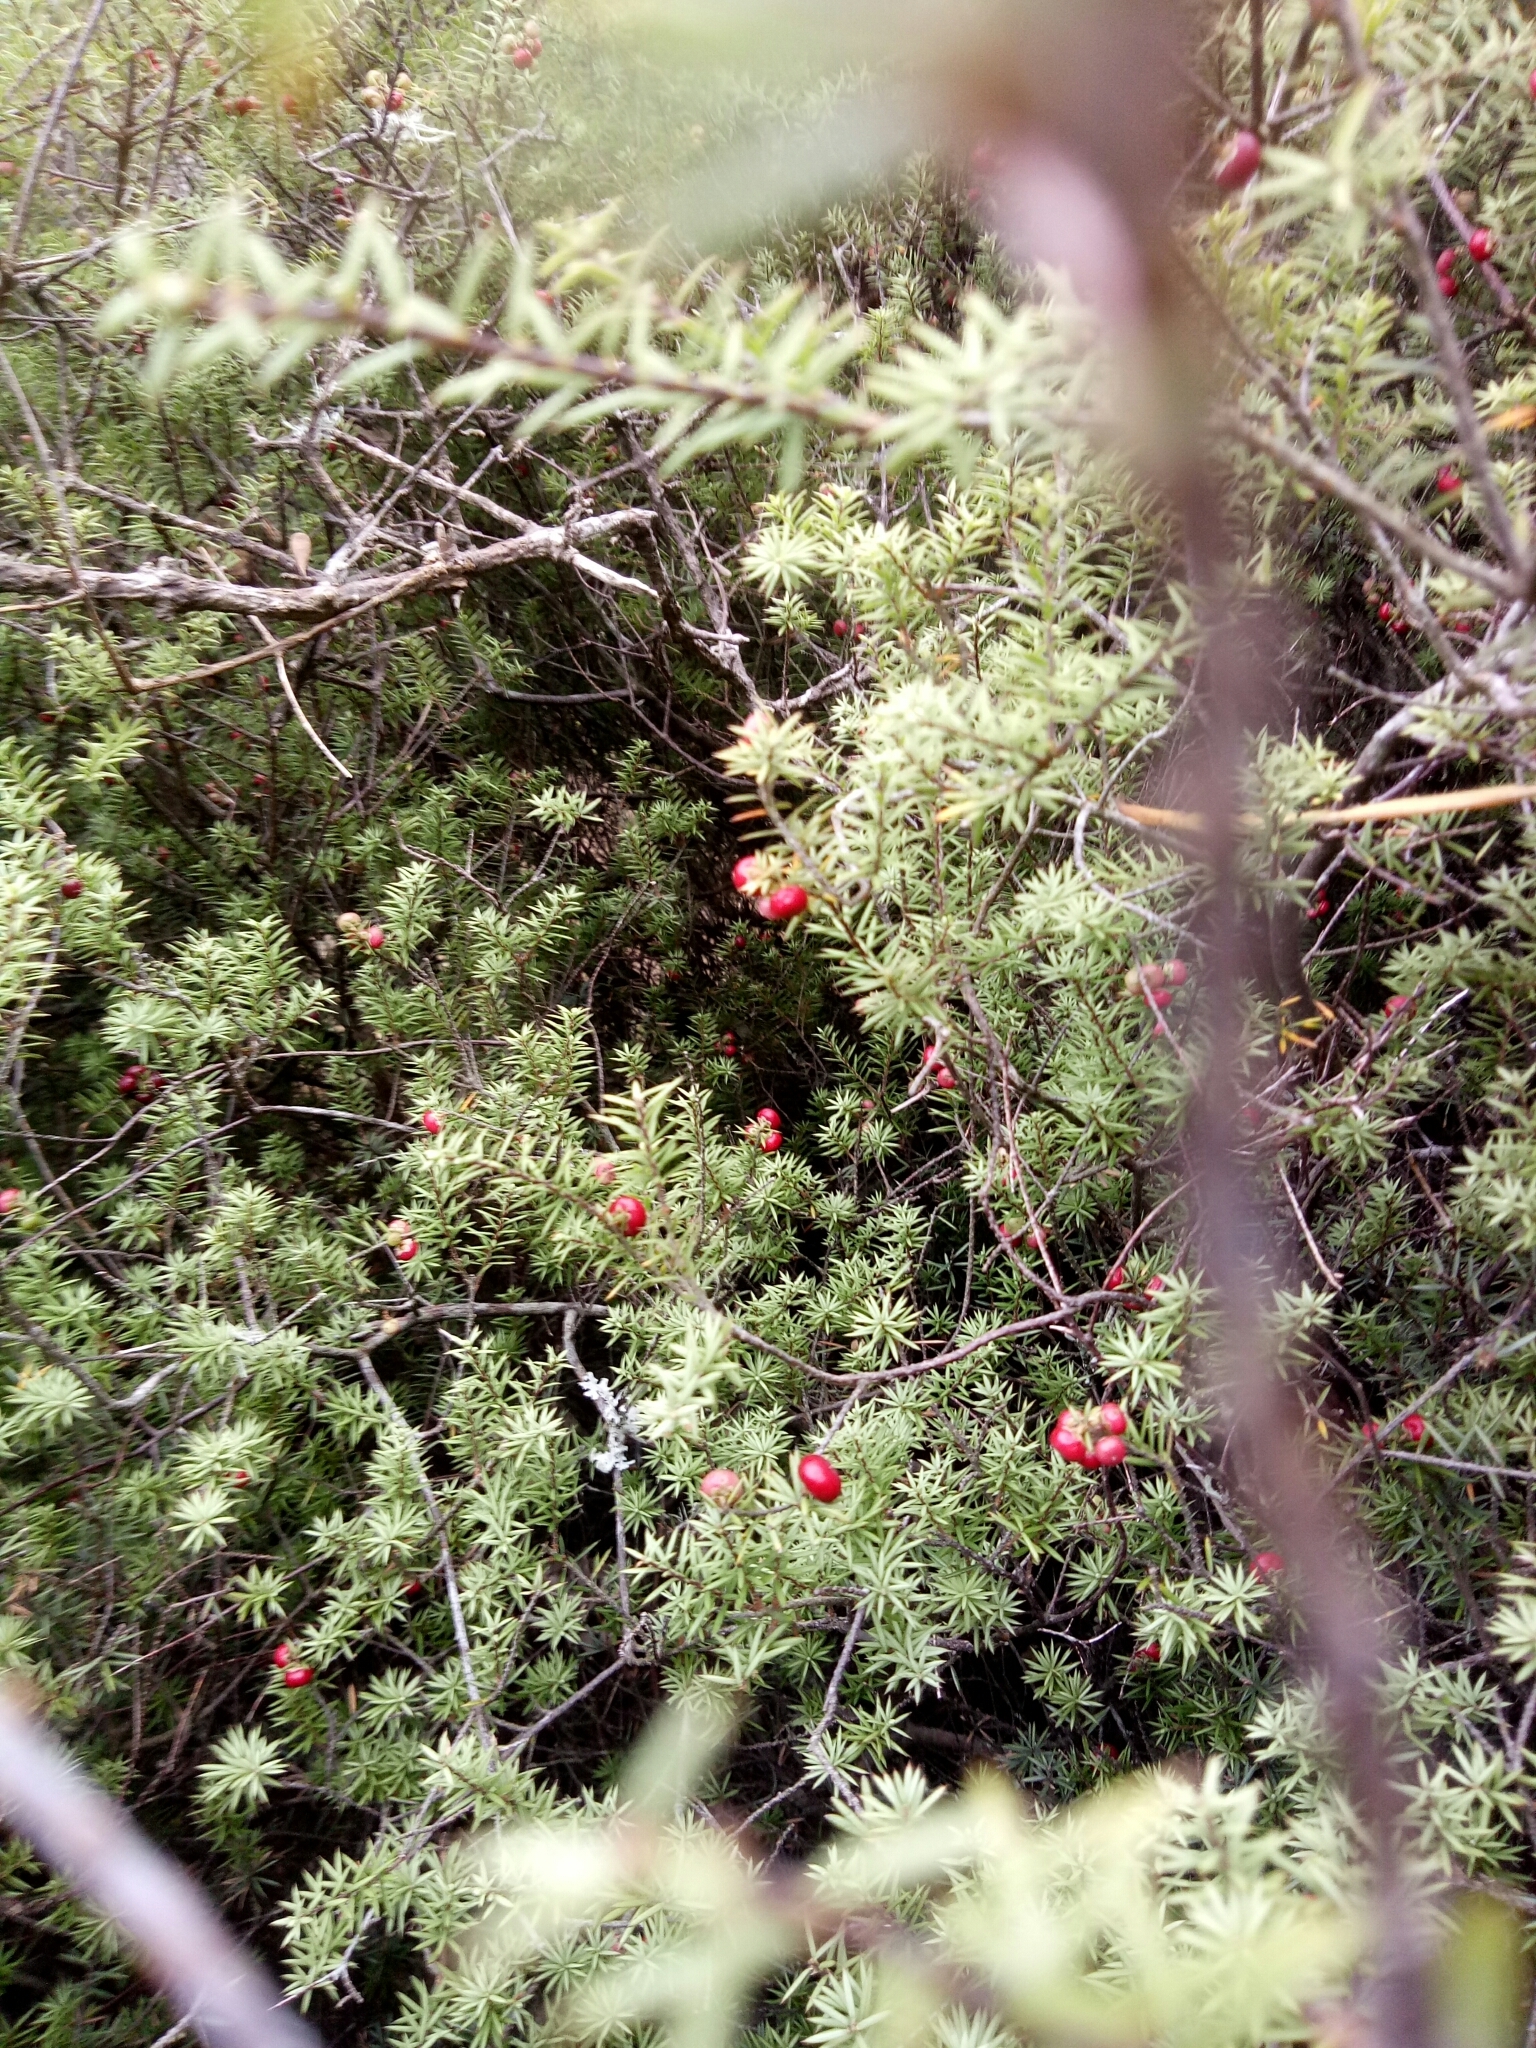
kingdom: Plantae
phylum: Tracheophyta
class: Magnoliopsida
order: Ericales
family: Ericaceae
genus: Leptecophylla
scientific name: Leptecophylla juniperina
